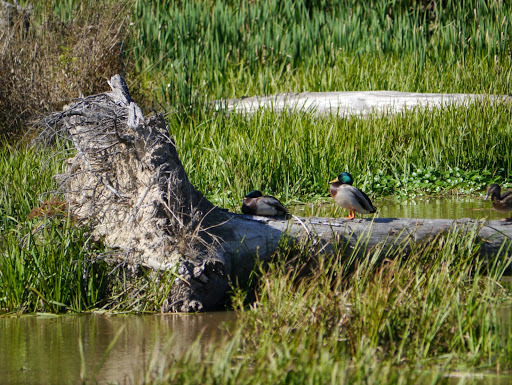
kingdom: Animalia
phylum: Chordata
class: Aves
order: Anseriformes
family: Anatidae
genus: Anas
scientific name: Anas platyrhynchos
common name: Mallard
